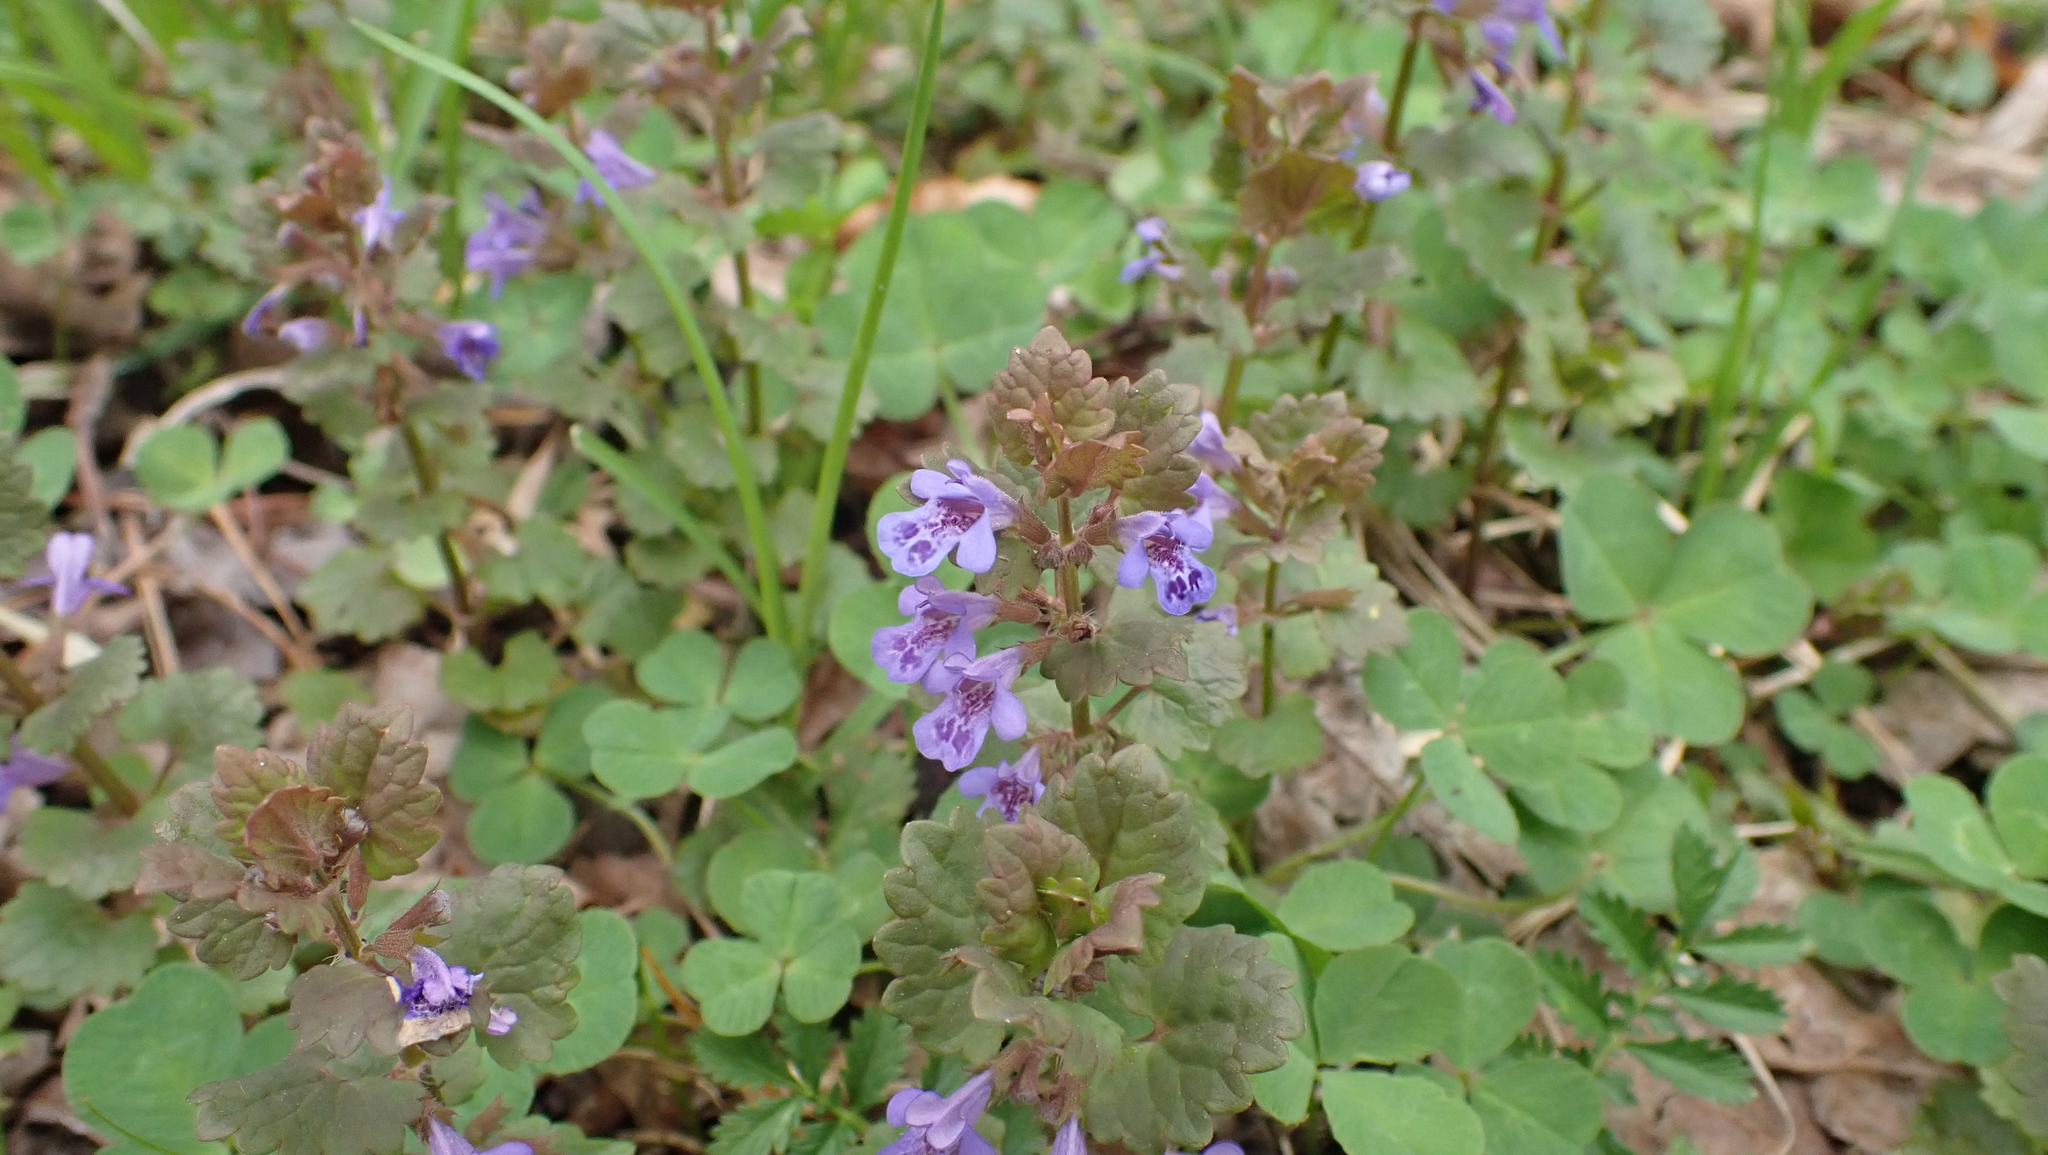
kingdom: Plantae
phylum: Tracheophyta
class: Magnoliopsida
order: Lamiales
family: Lamiaceae
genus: Glechoma
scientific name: Glechoma hederacea
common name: Ground ivy
